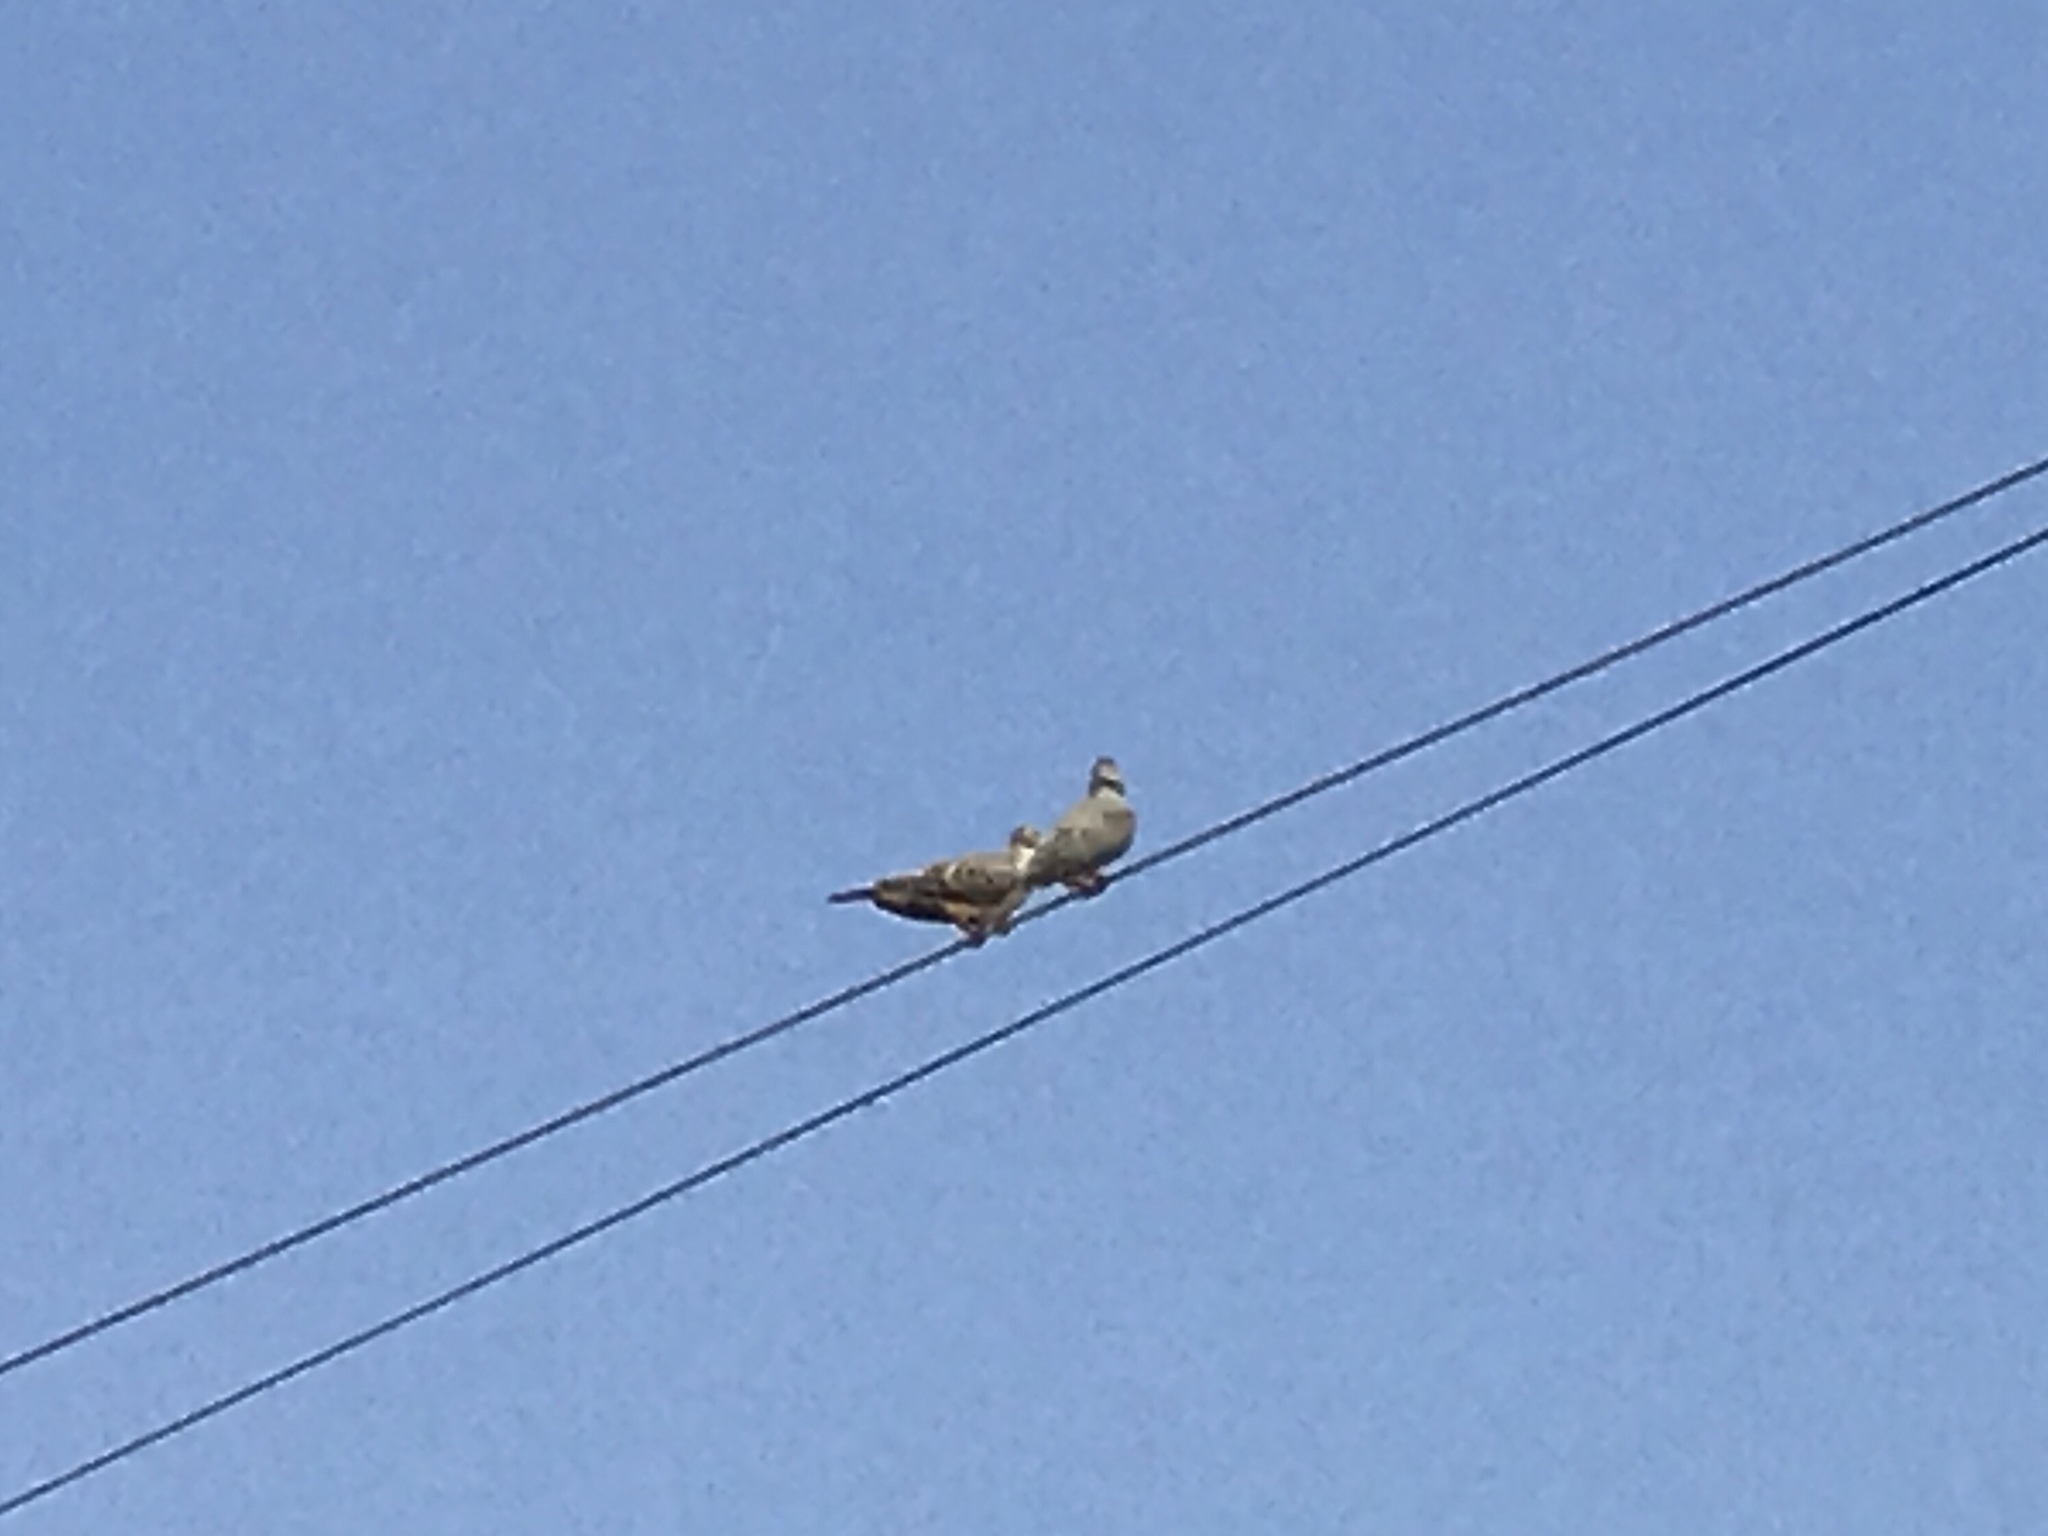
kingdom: Animalia
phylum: Chordata
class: Aves
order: Columbiformes
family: Columbidae
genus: Zenaida
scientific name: Zenaida macroura
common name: Mourning dove
